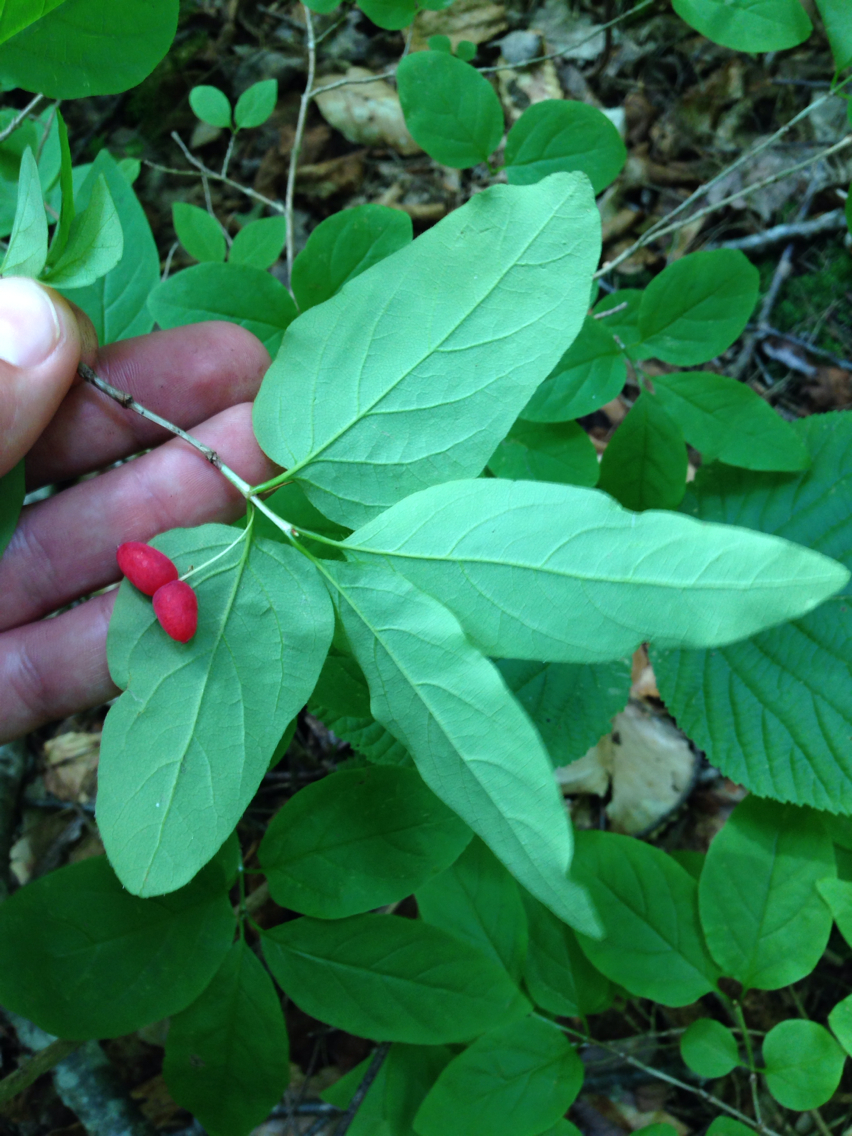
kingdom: Plantae
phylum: Tracheophyta
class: Magnoliopsida
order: Dipsacales
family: Caprifoliaceae
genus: Lonicera
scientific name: Lonicera canadensis
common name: American fly-honeysuckle
